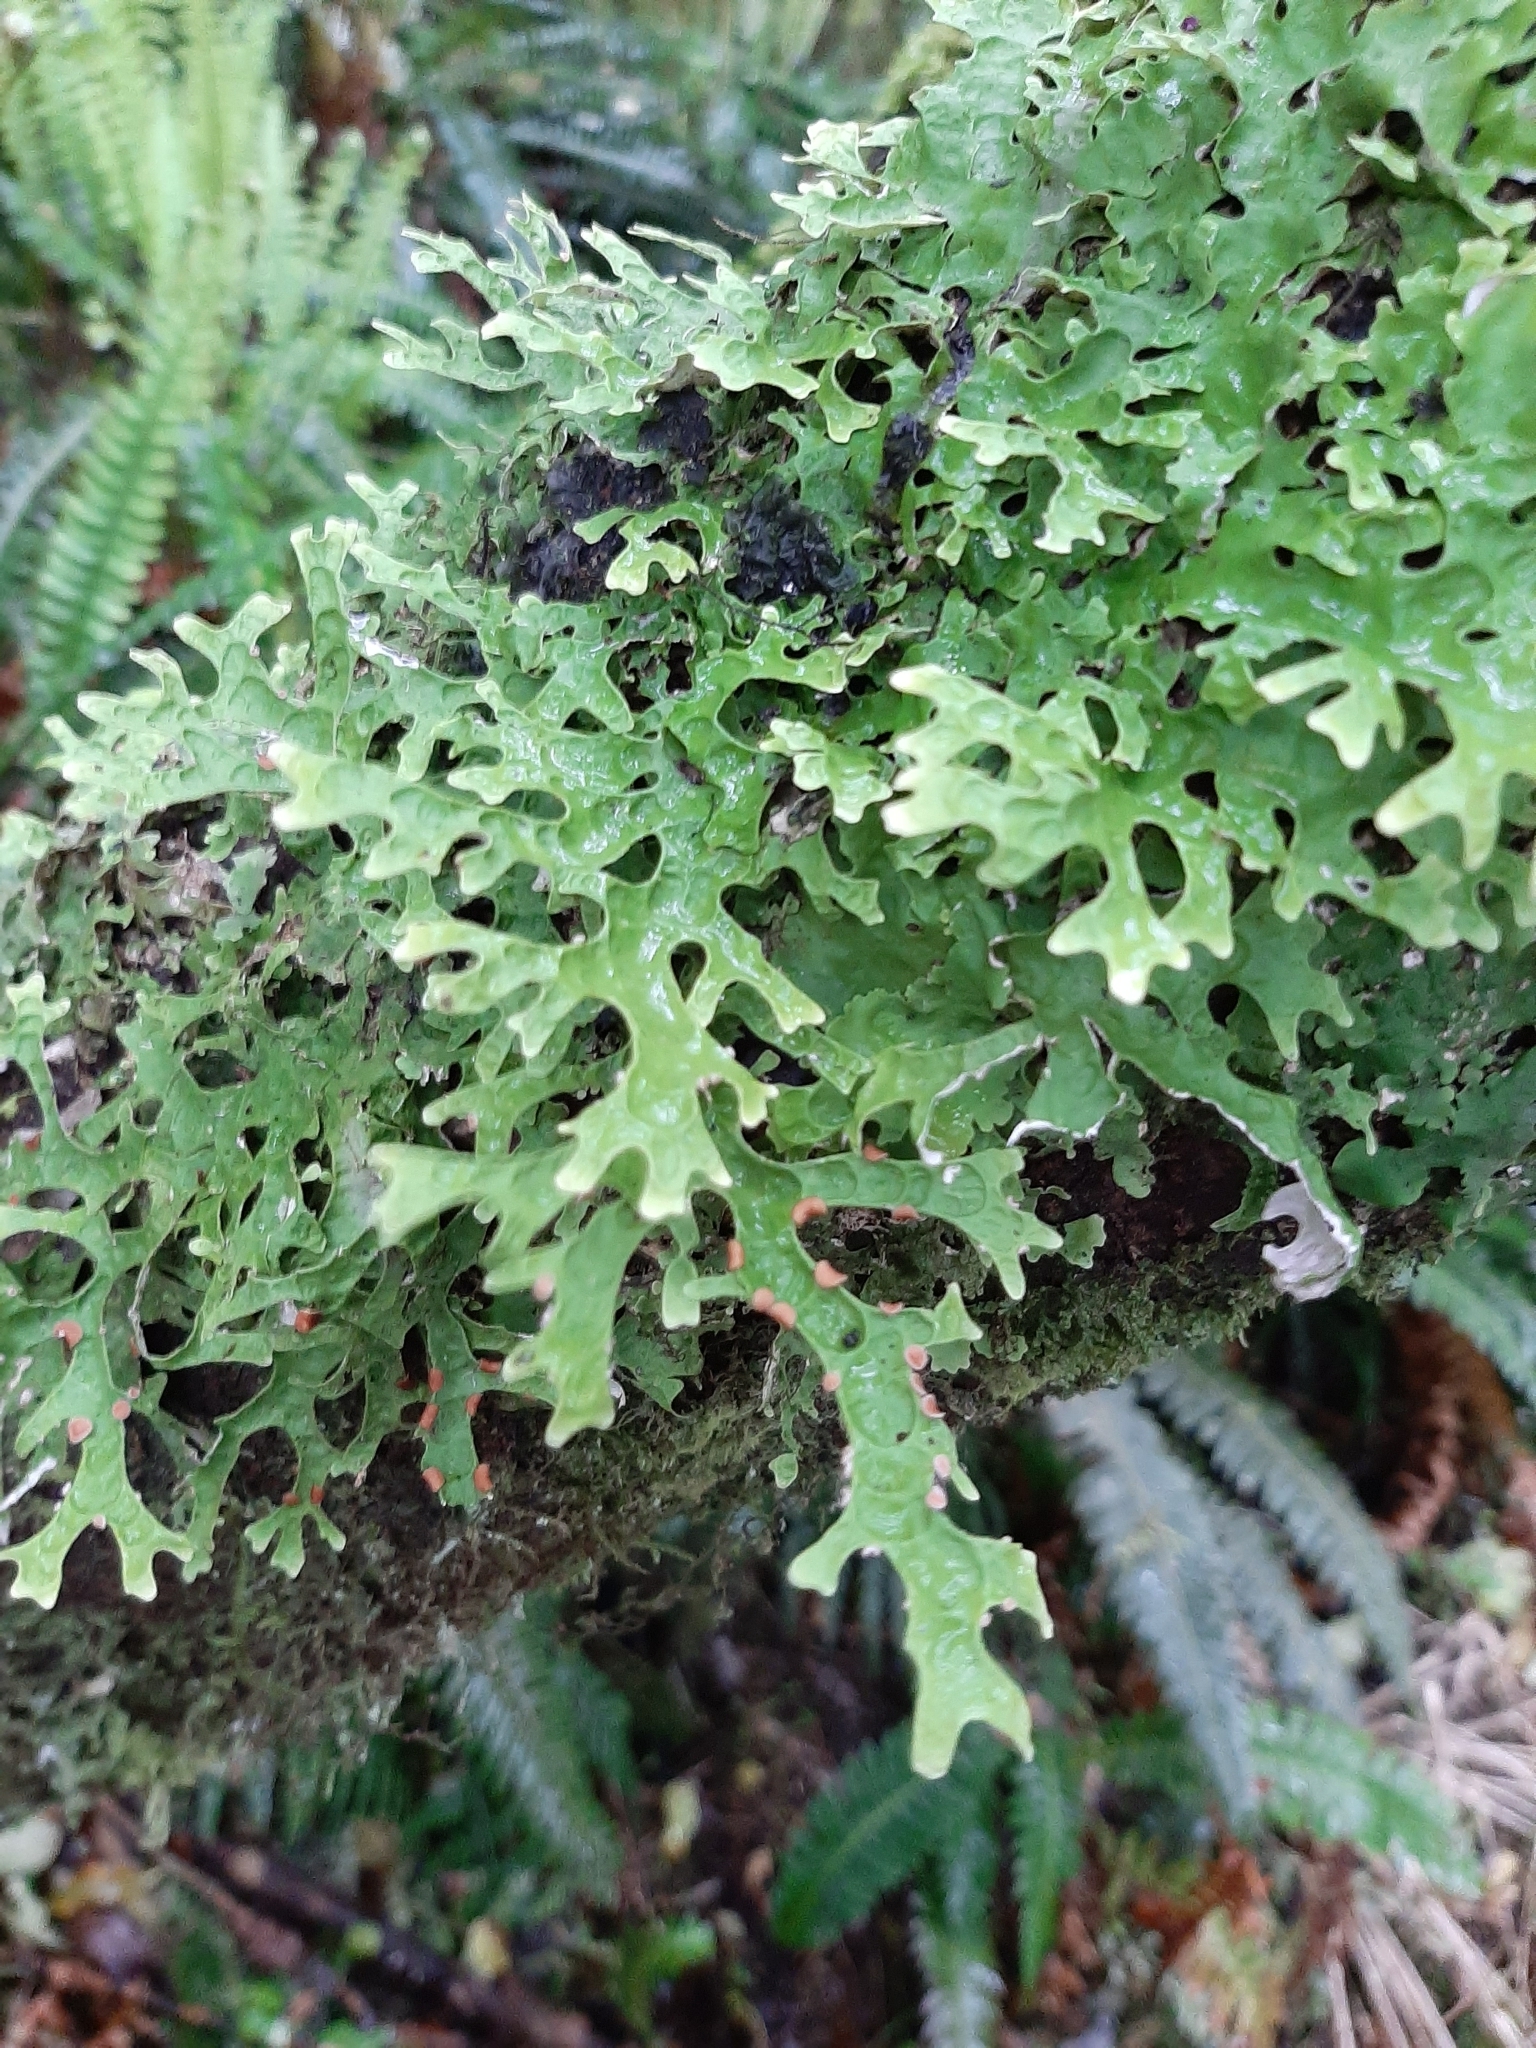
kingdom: Fungi
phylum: Ascomycota
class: Lecanoromycetes
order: Peltigerales
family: Lobariaceae
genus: Pseudocyphellaria
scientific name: Pseudocyphellaria rufovirescens
